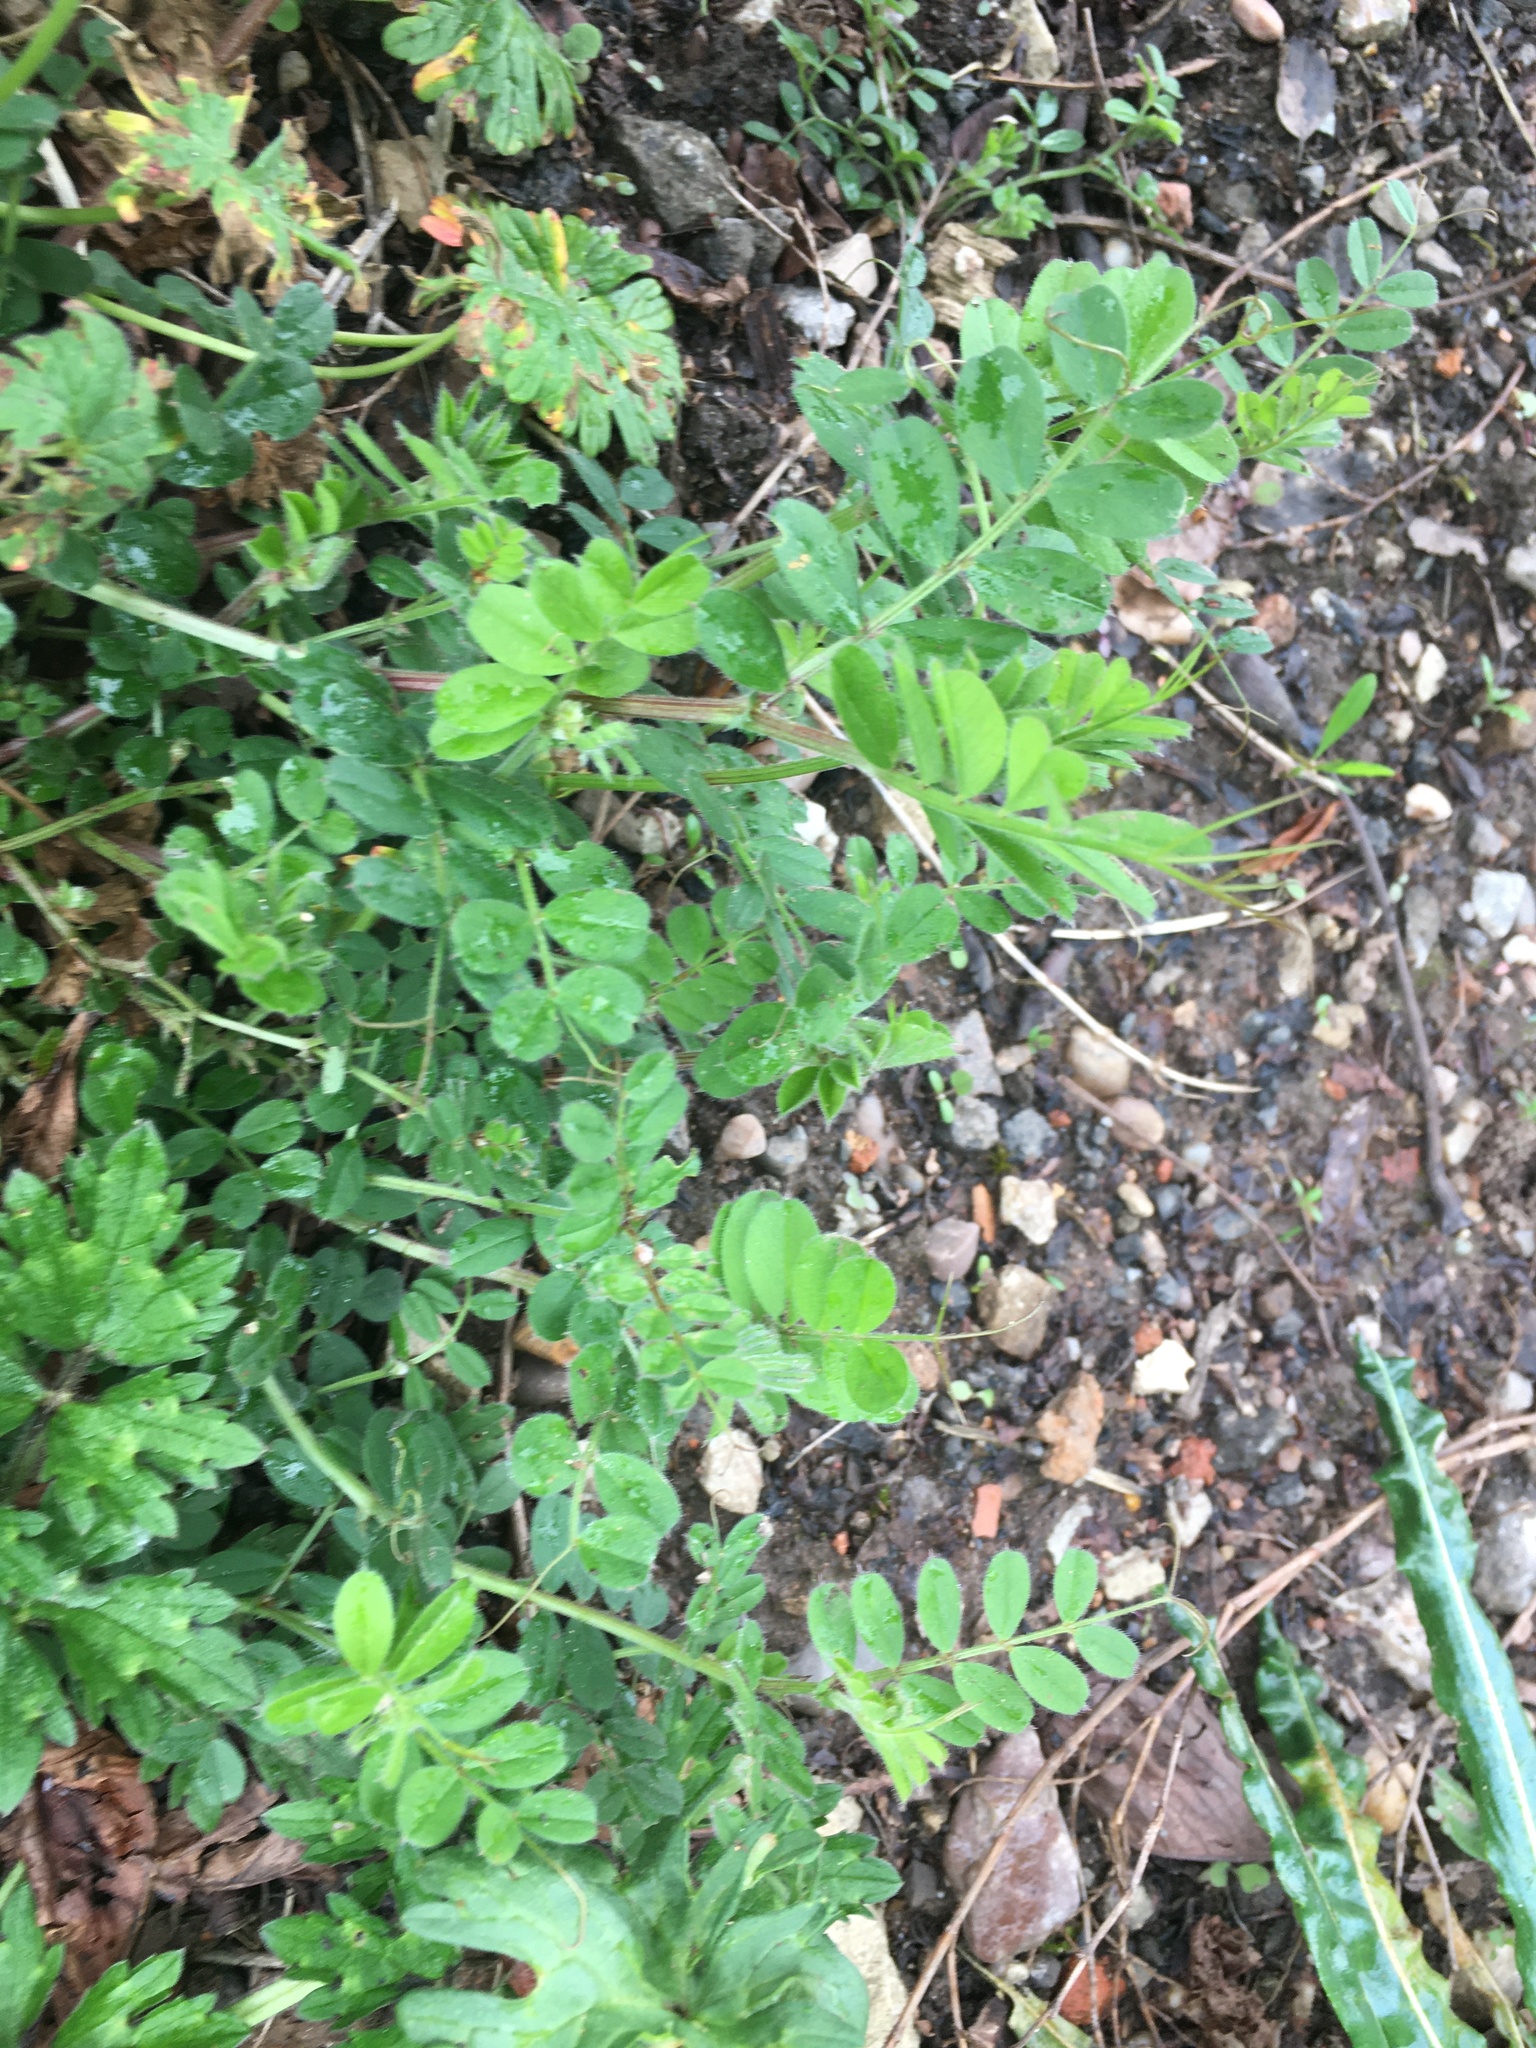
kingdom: Plantae
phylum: Tracheophyta
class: Magnoliopsida
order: Fabales
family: Fabaceae
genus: Vicia
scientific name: Vicia sativa
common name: Garden vetch
